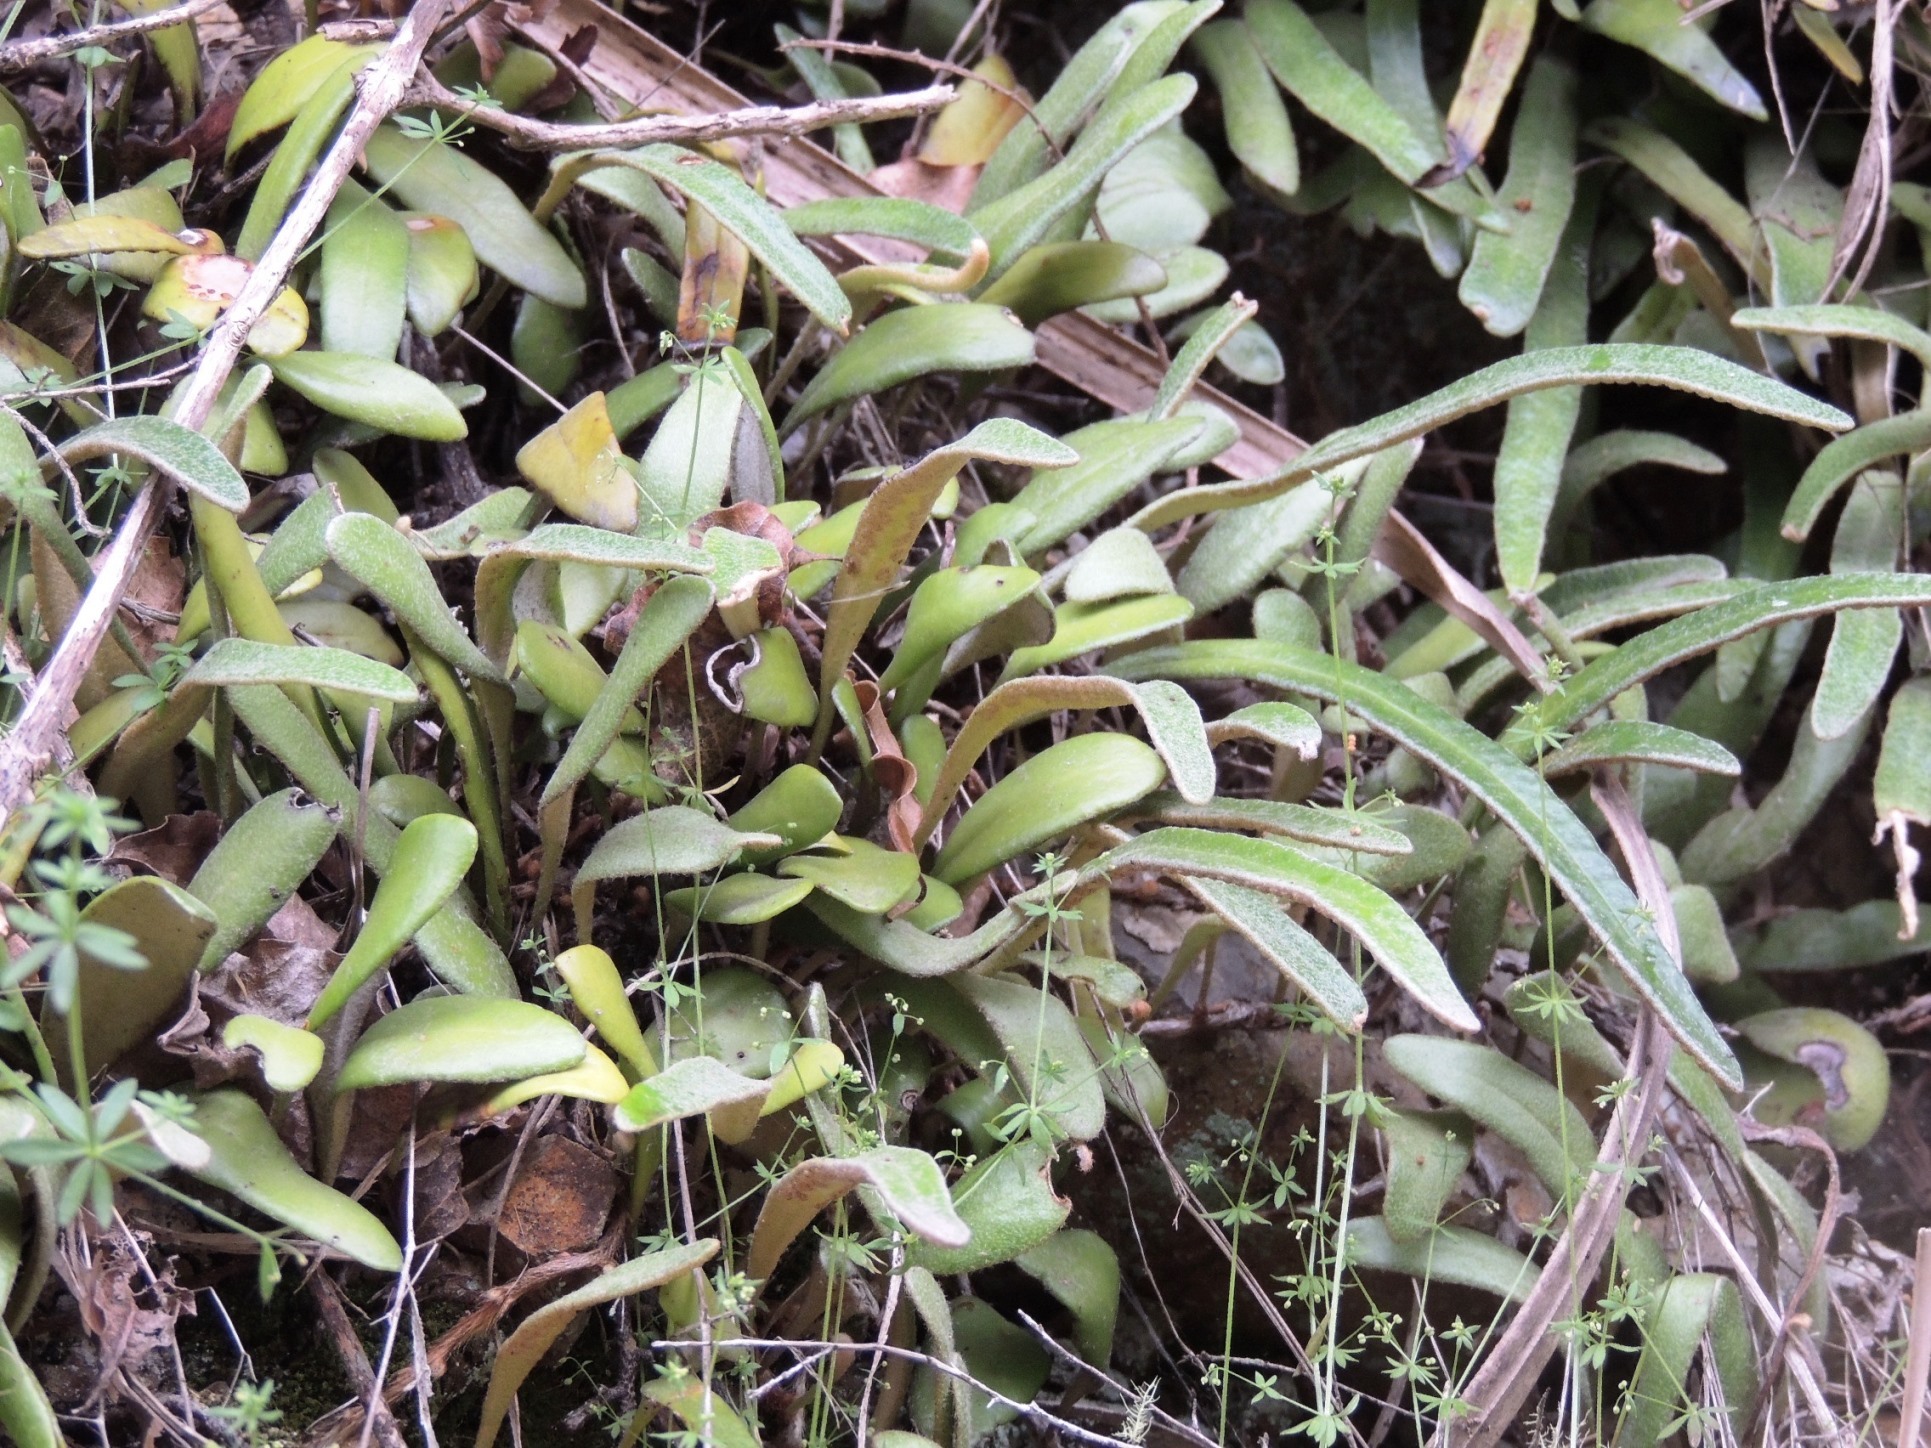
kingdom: Plantae
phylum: Tracheophyta
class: Polypodiopsida
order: Polypodiales
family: Polypodiaceae
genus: Pyrrosia
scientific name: Pyrrosia eleagnifolia
